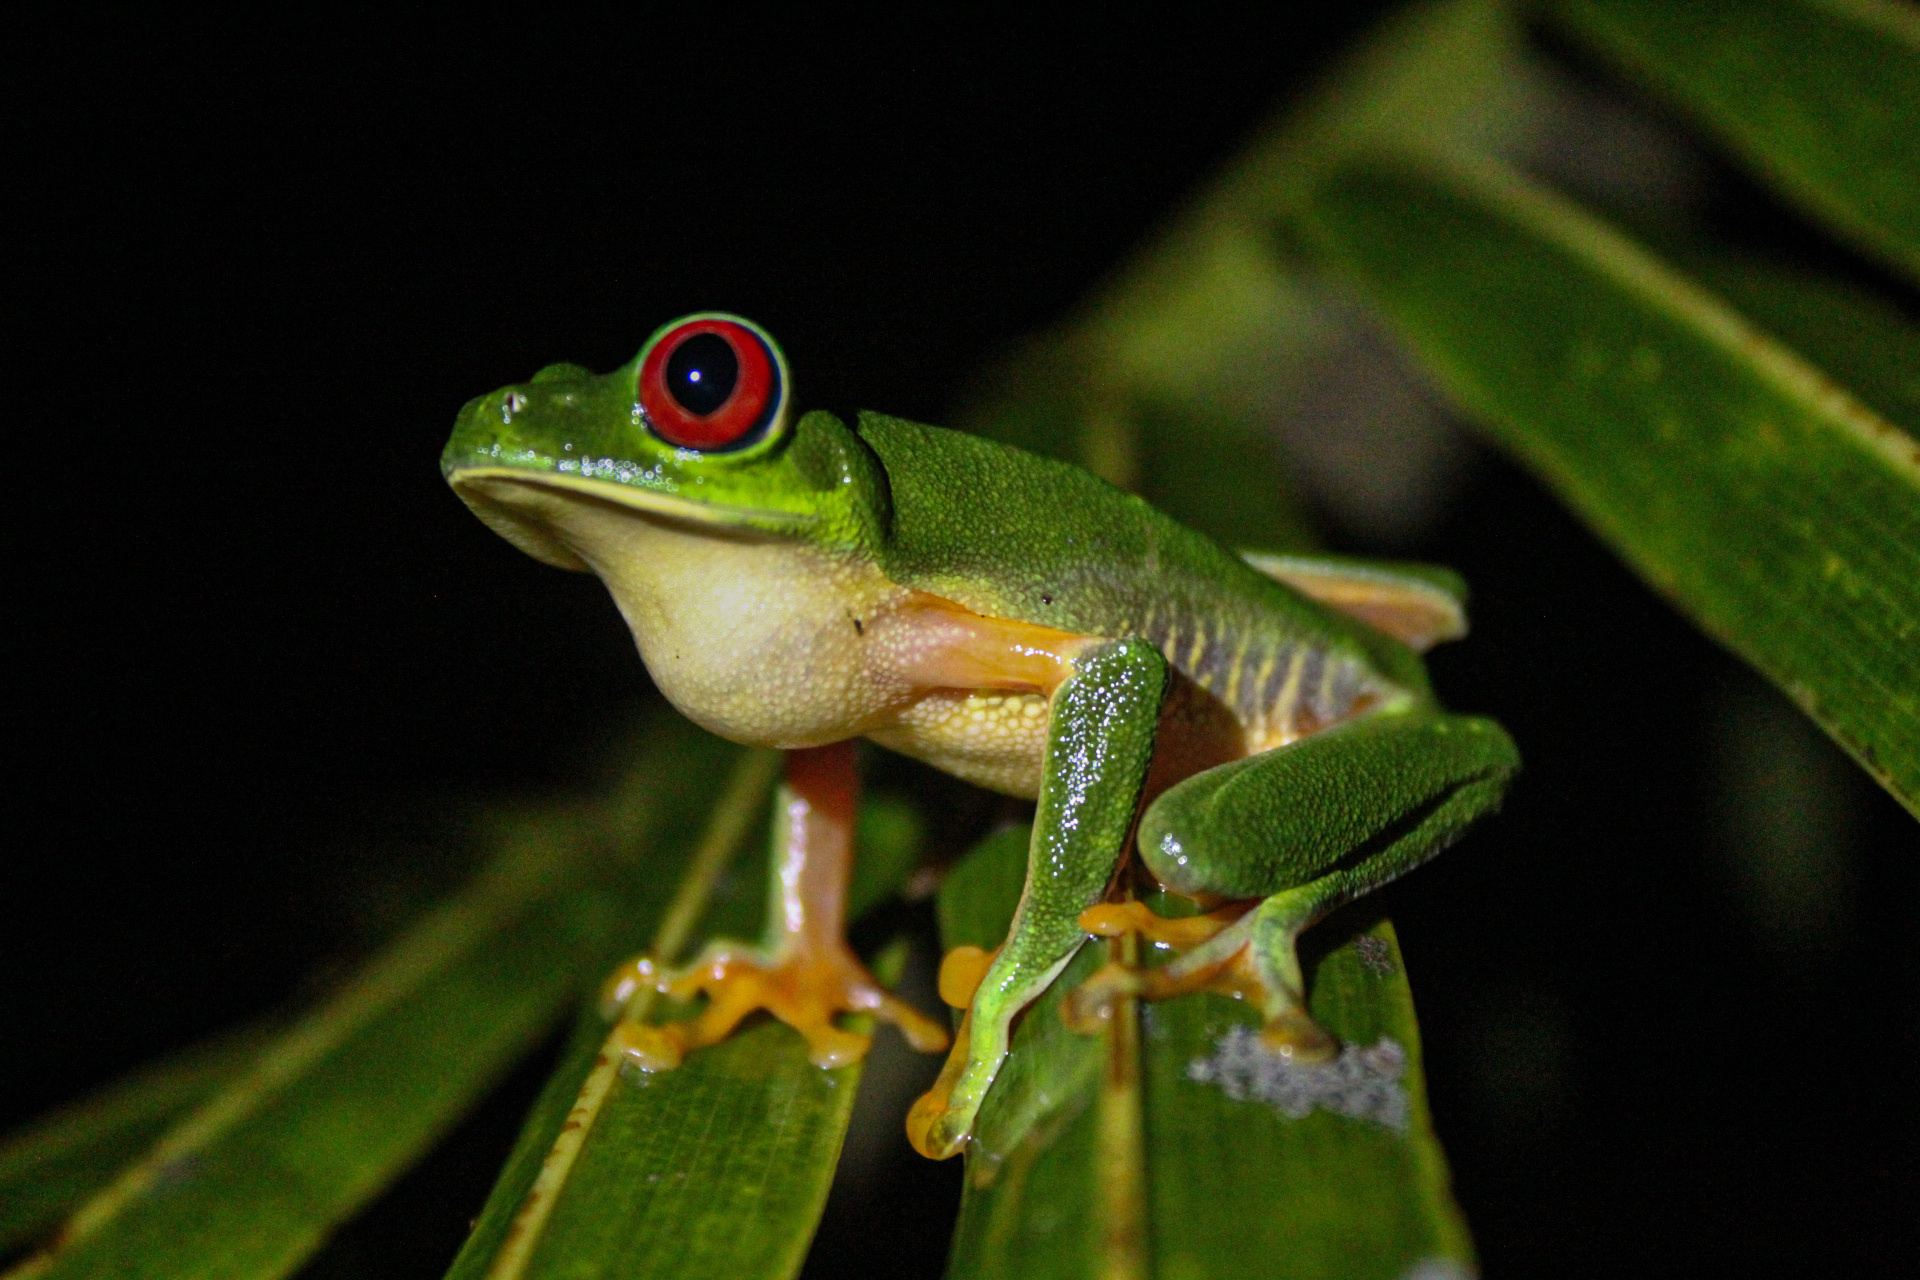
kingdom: Animalia
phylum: Chordata
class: Amphibia
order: Anura
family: Phyllomedusidae
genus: Agalychnis
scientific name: Agalychnis callidryas
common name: Red-eyed treefrog
